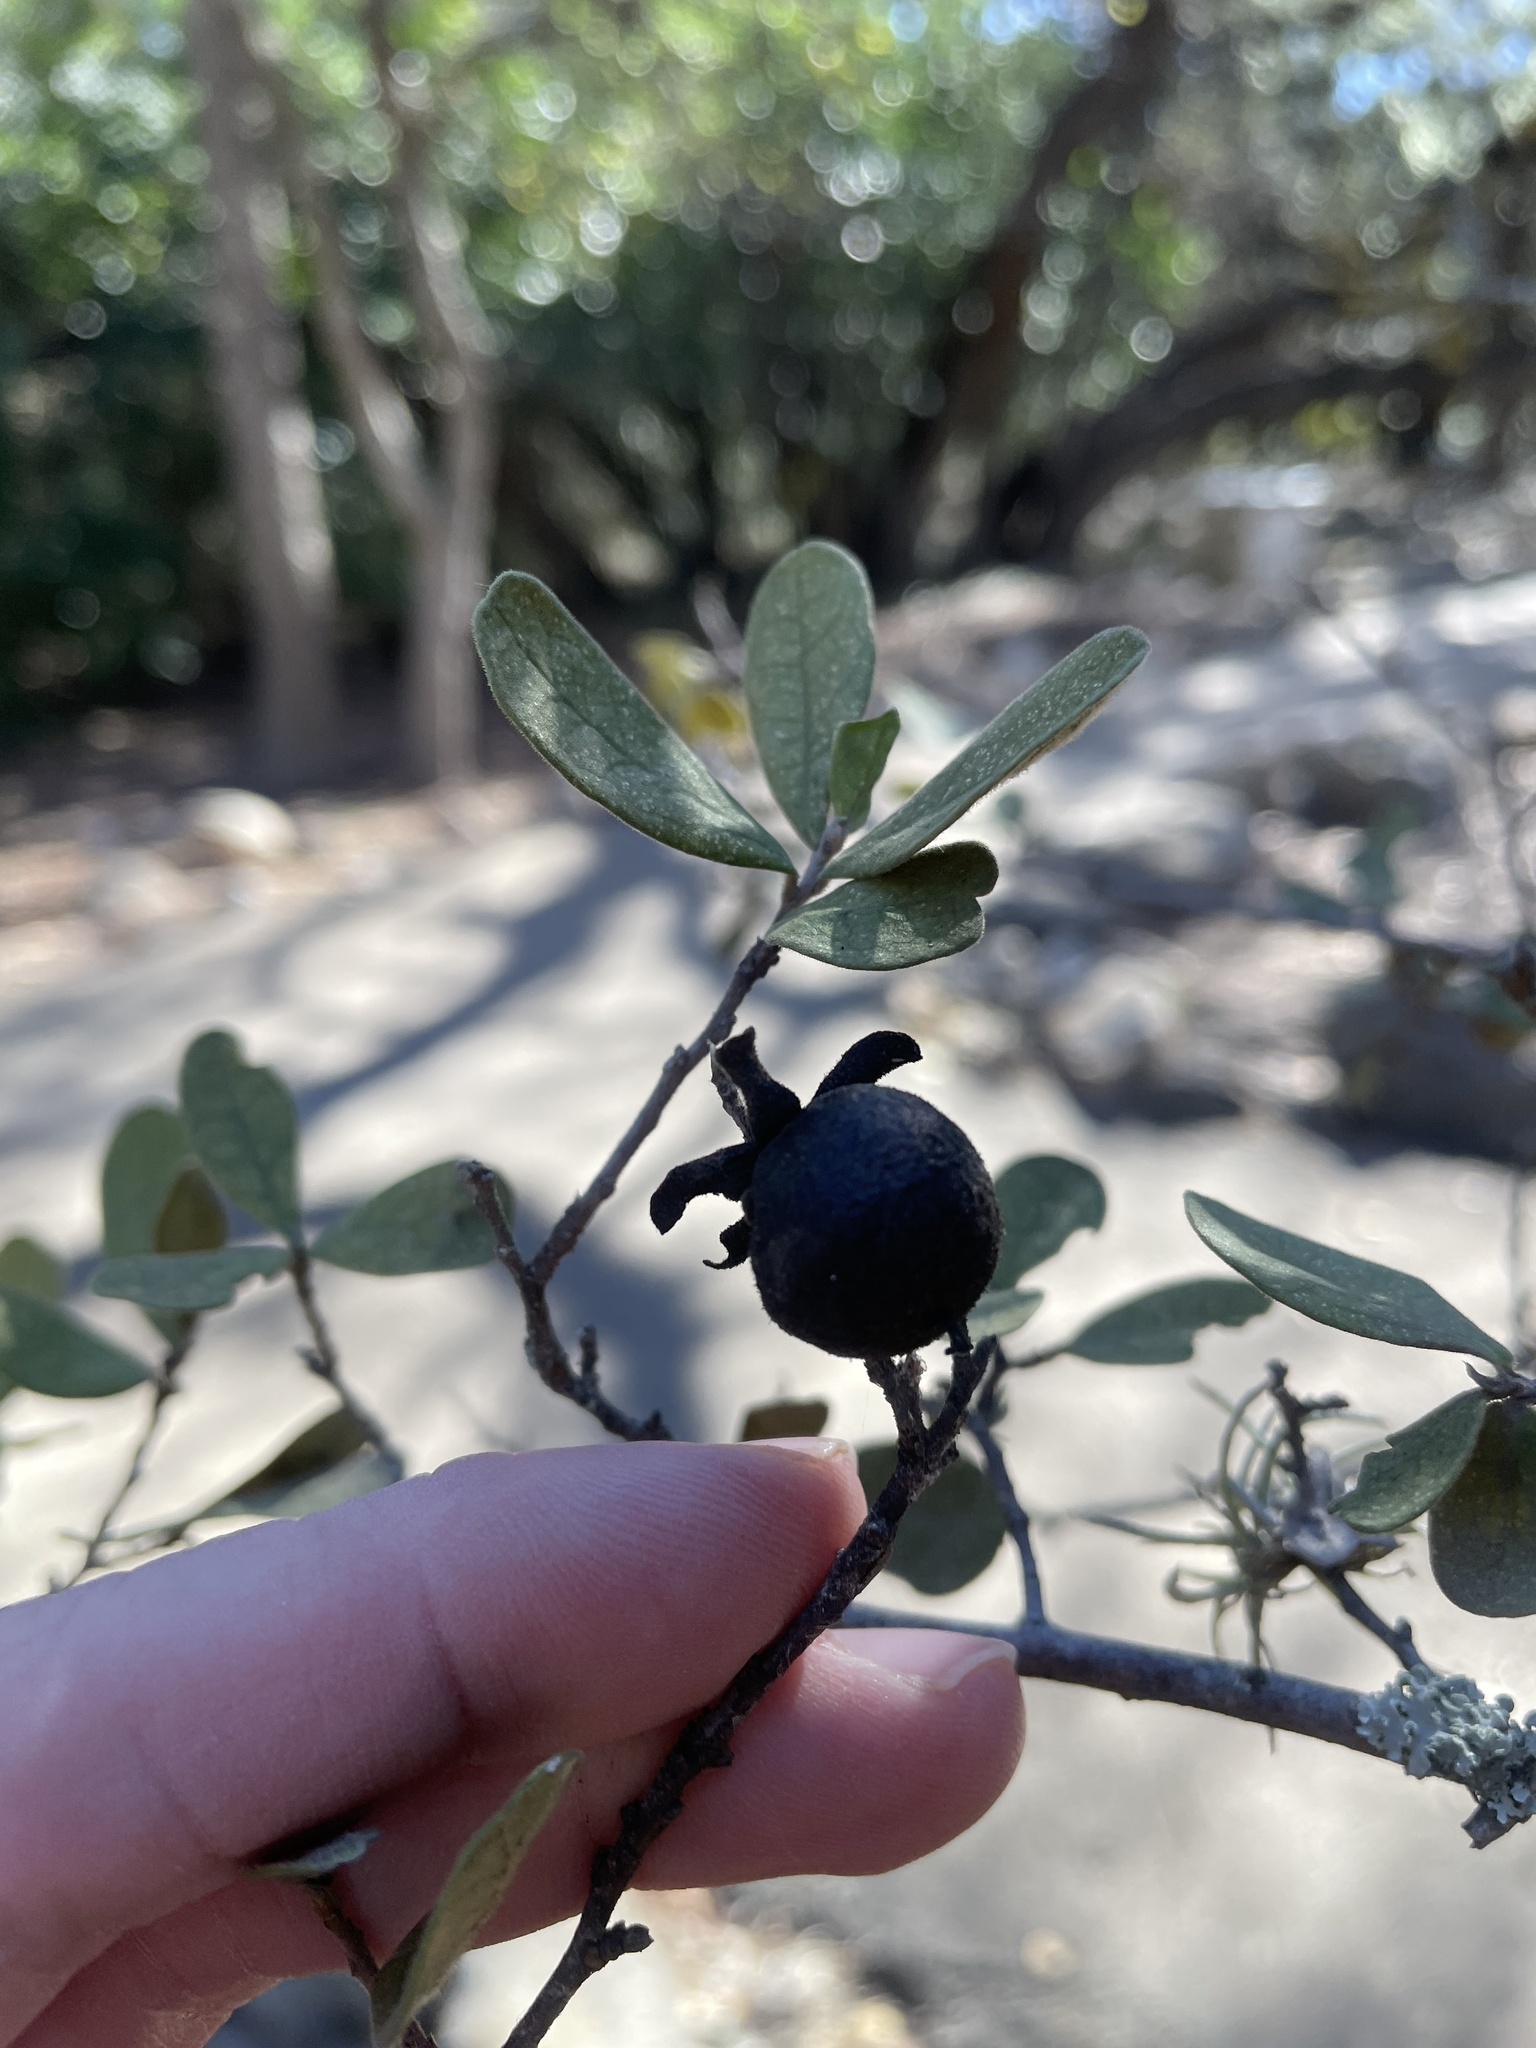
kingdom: Plantae
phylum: Tracheophyta
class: Magnoliopsida
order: Ericales
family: Ebenaceae
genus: Diospyros
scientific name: Diospyros texana
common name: Texas persimmon
